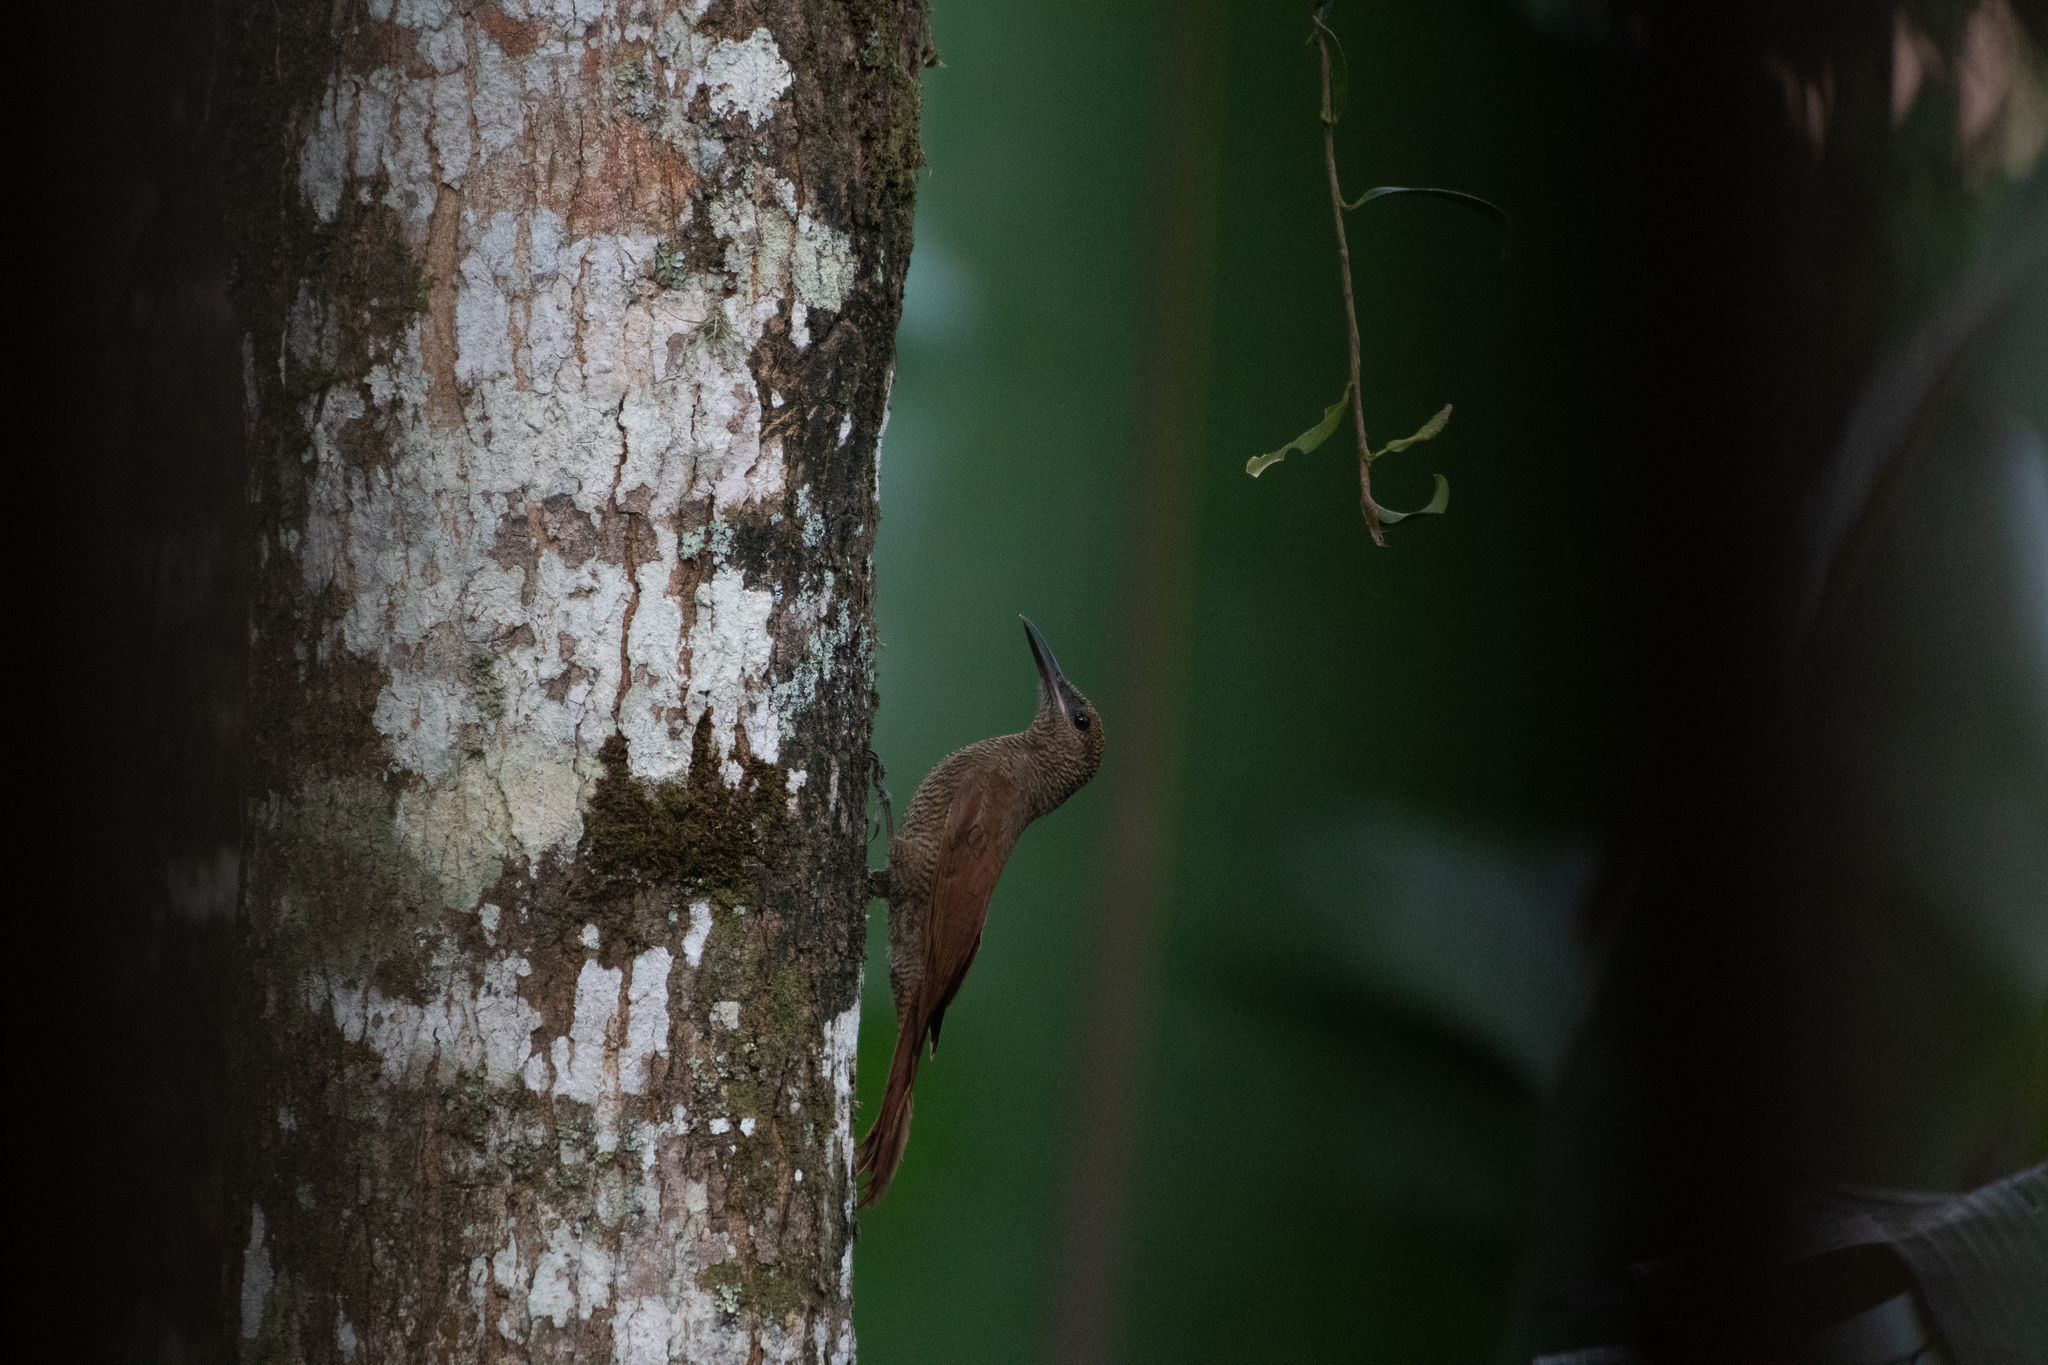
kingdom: Animalia
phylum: Chordata
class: Aves
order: Passeriformes
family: Furnariidae
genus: Dendrocolaptes
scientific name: Dendrocolaptes sanctithomae
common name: Northern barred-woodcreeper
